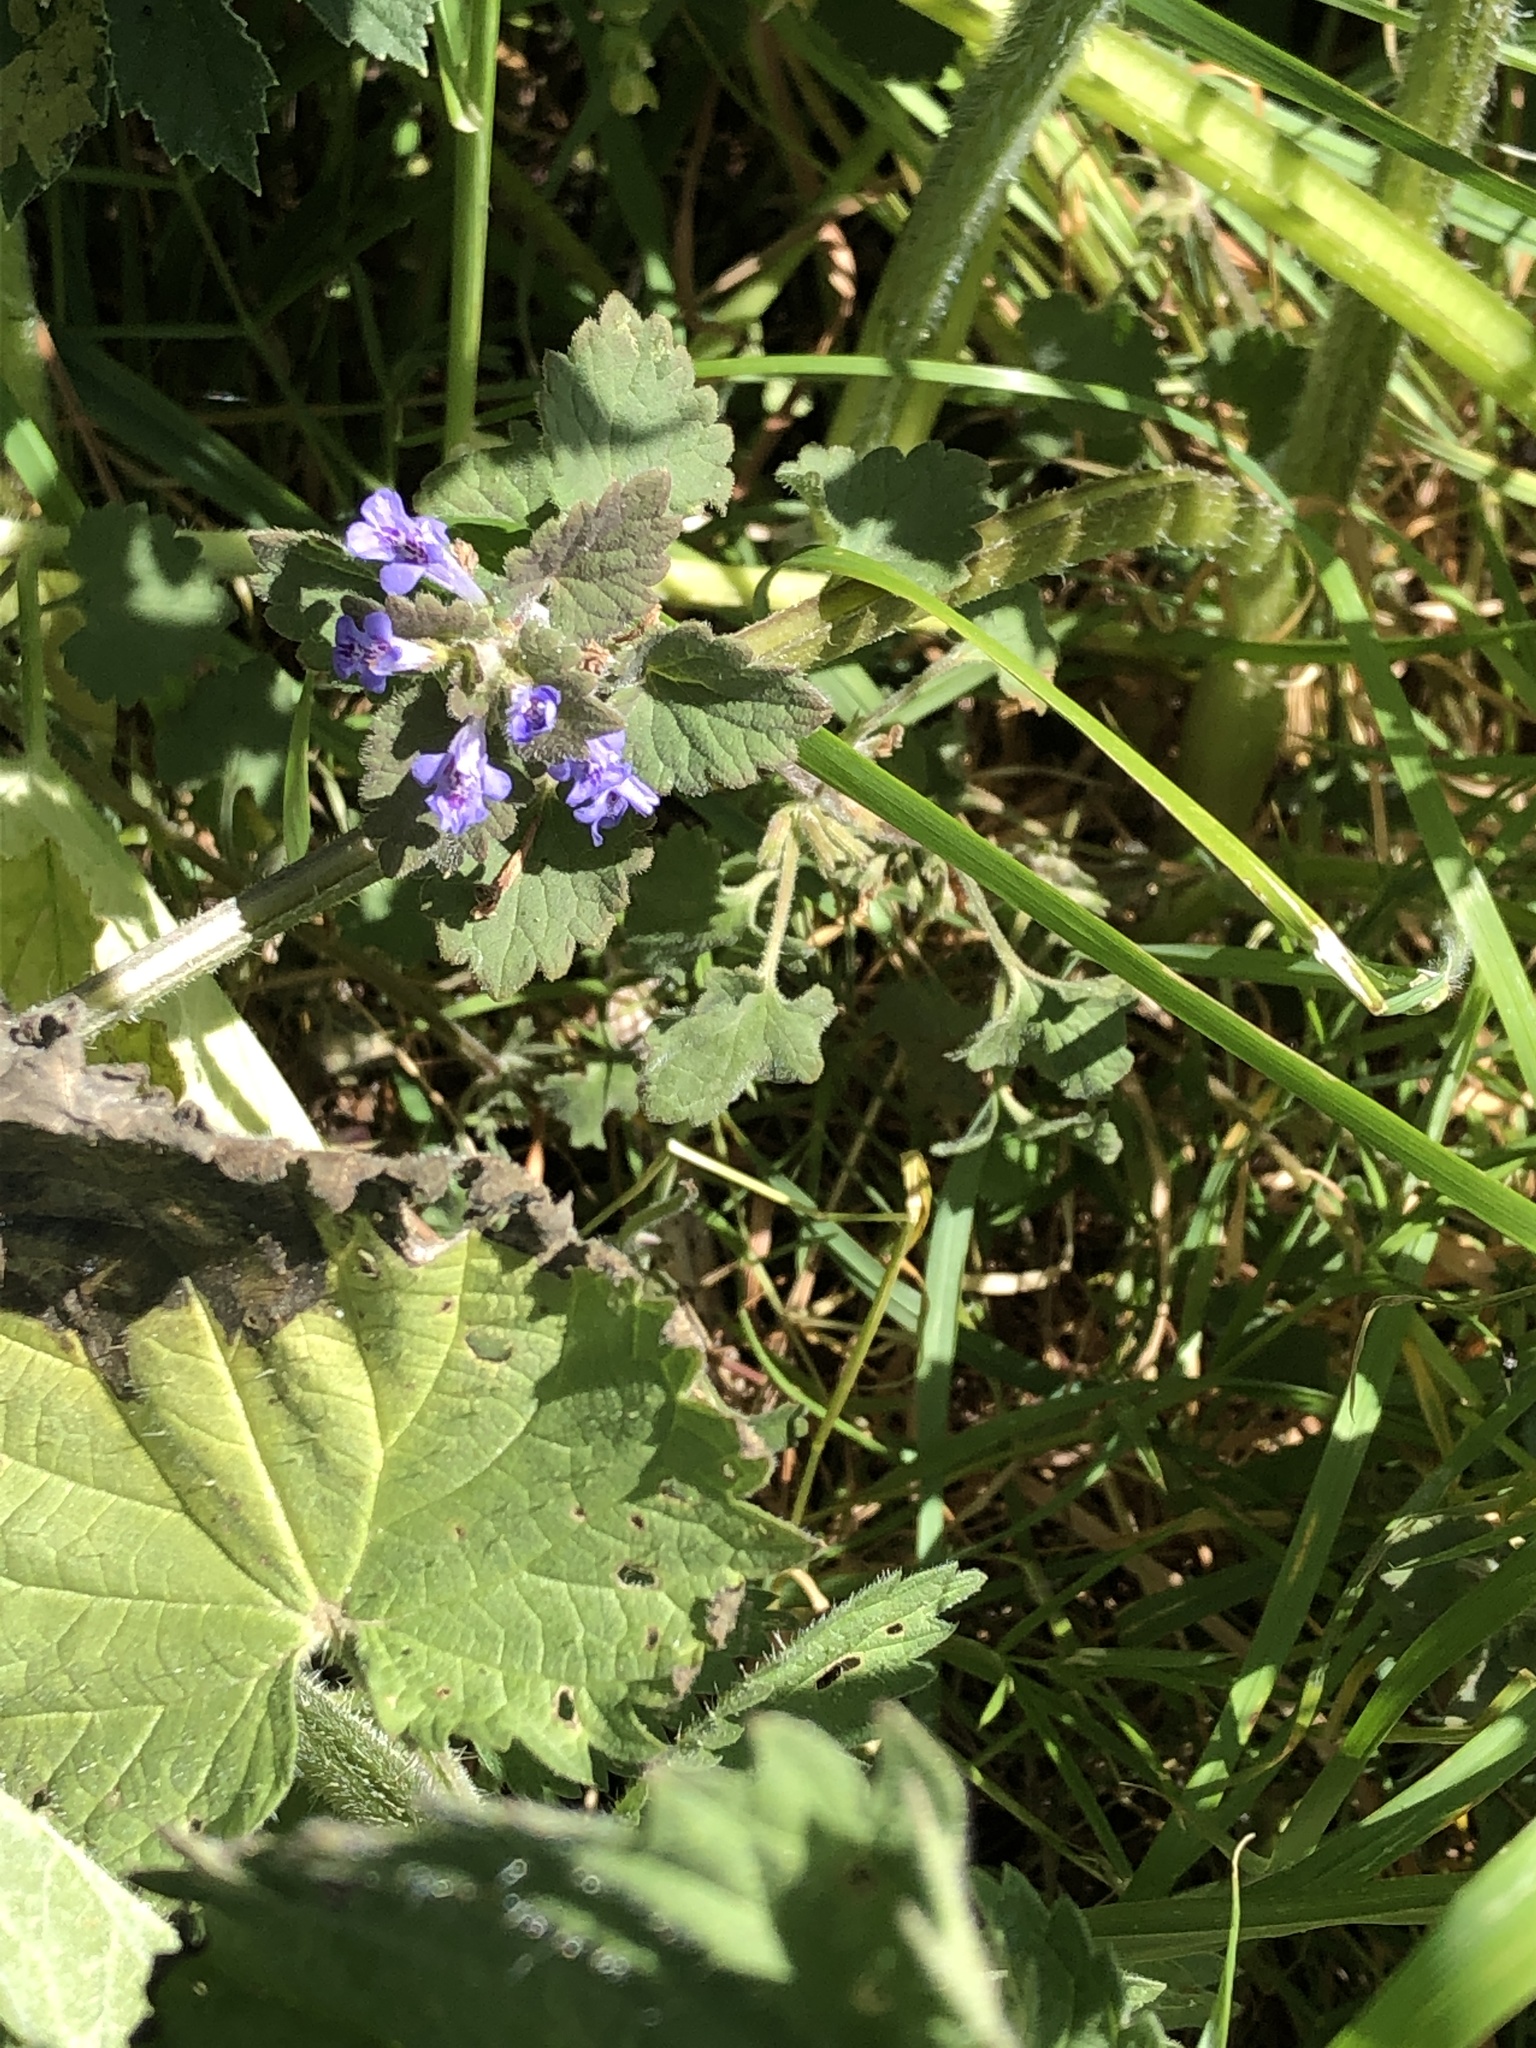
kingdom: Plantae
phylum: Tracheophyta
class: Magnoliopsida
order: Lamiales
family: Lamiaceae
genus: Glechoma
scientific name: Glechoma hederacea
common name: Ground ivy
